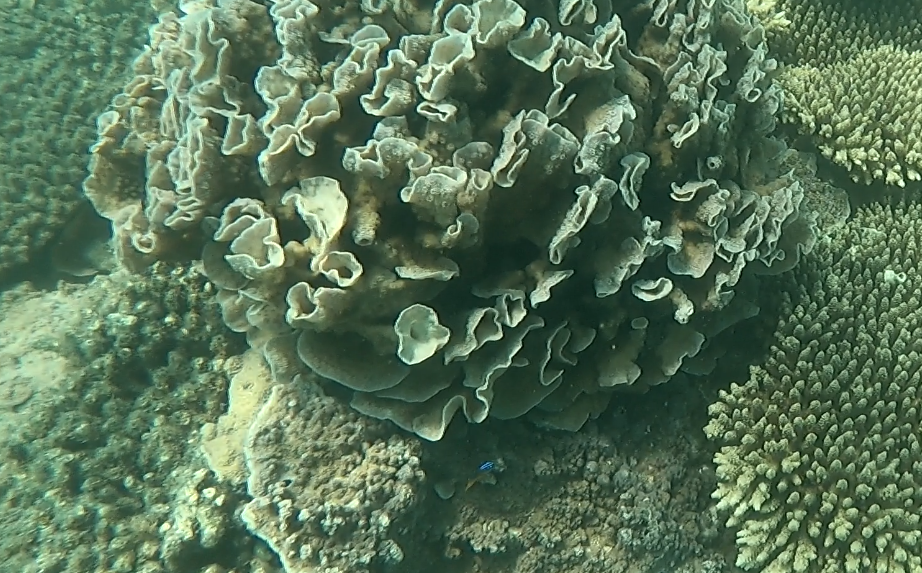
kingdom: Animalia
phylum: Cnidaria
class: Anthozoa
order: Scleractinia
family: Merulinidae
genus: Echinopora
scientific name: Echinopora lamellosa
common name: Hedgehog coral
